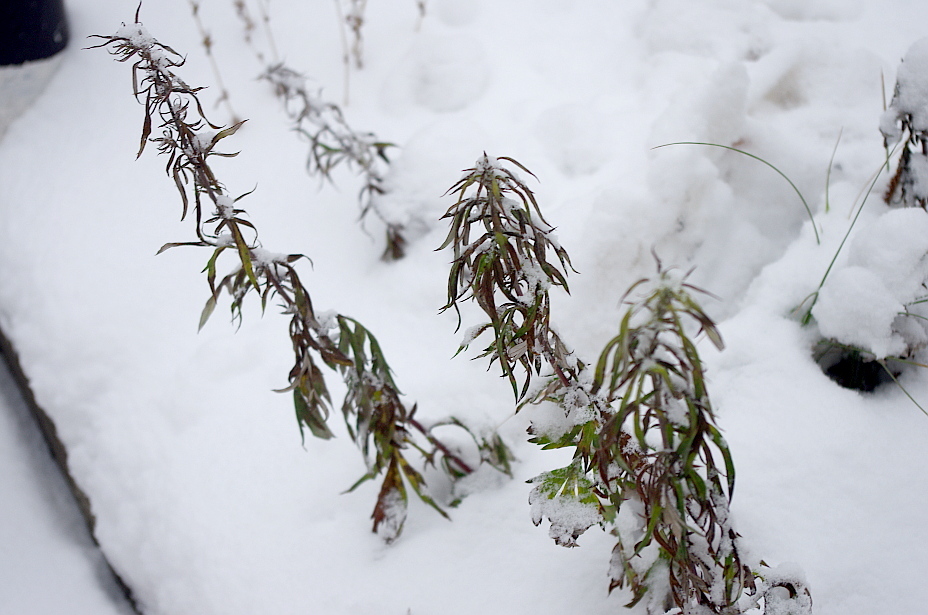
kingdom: Plantae
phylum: Tracheophyta
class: Magnoliopsida
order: Asterales
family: Asteraceae
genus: Artemisia
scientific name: Artemisia vulgaris
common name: Mugwort
